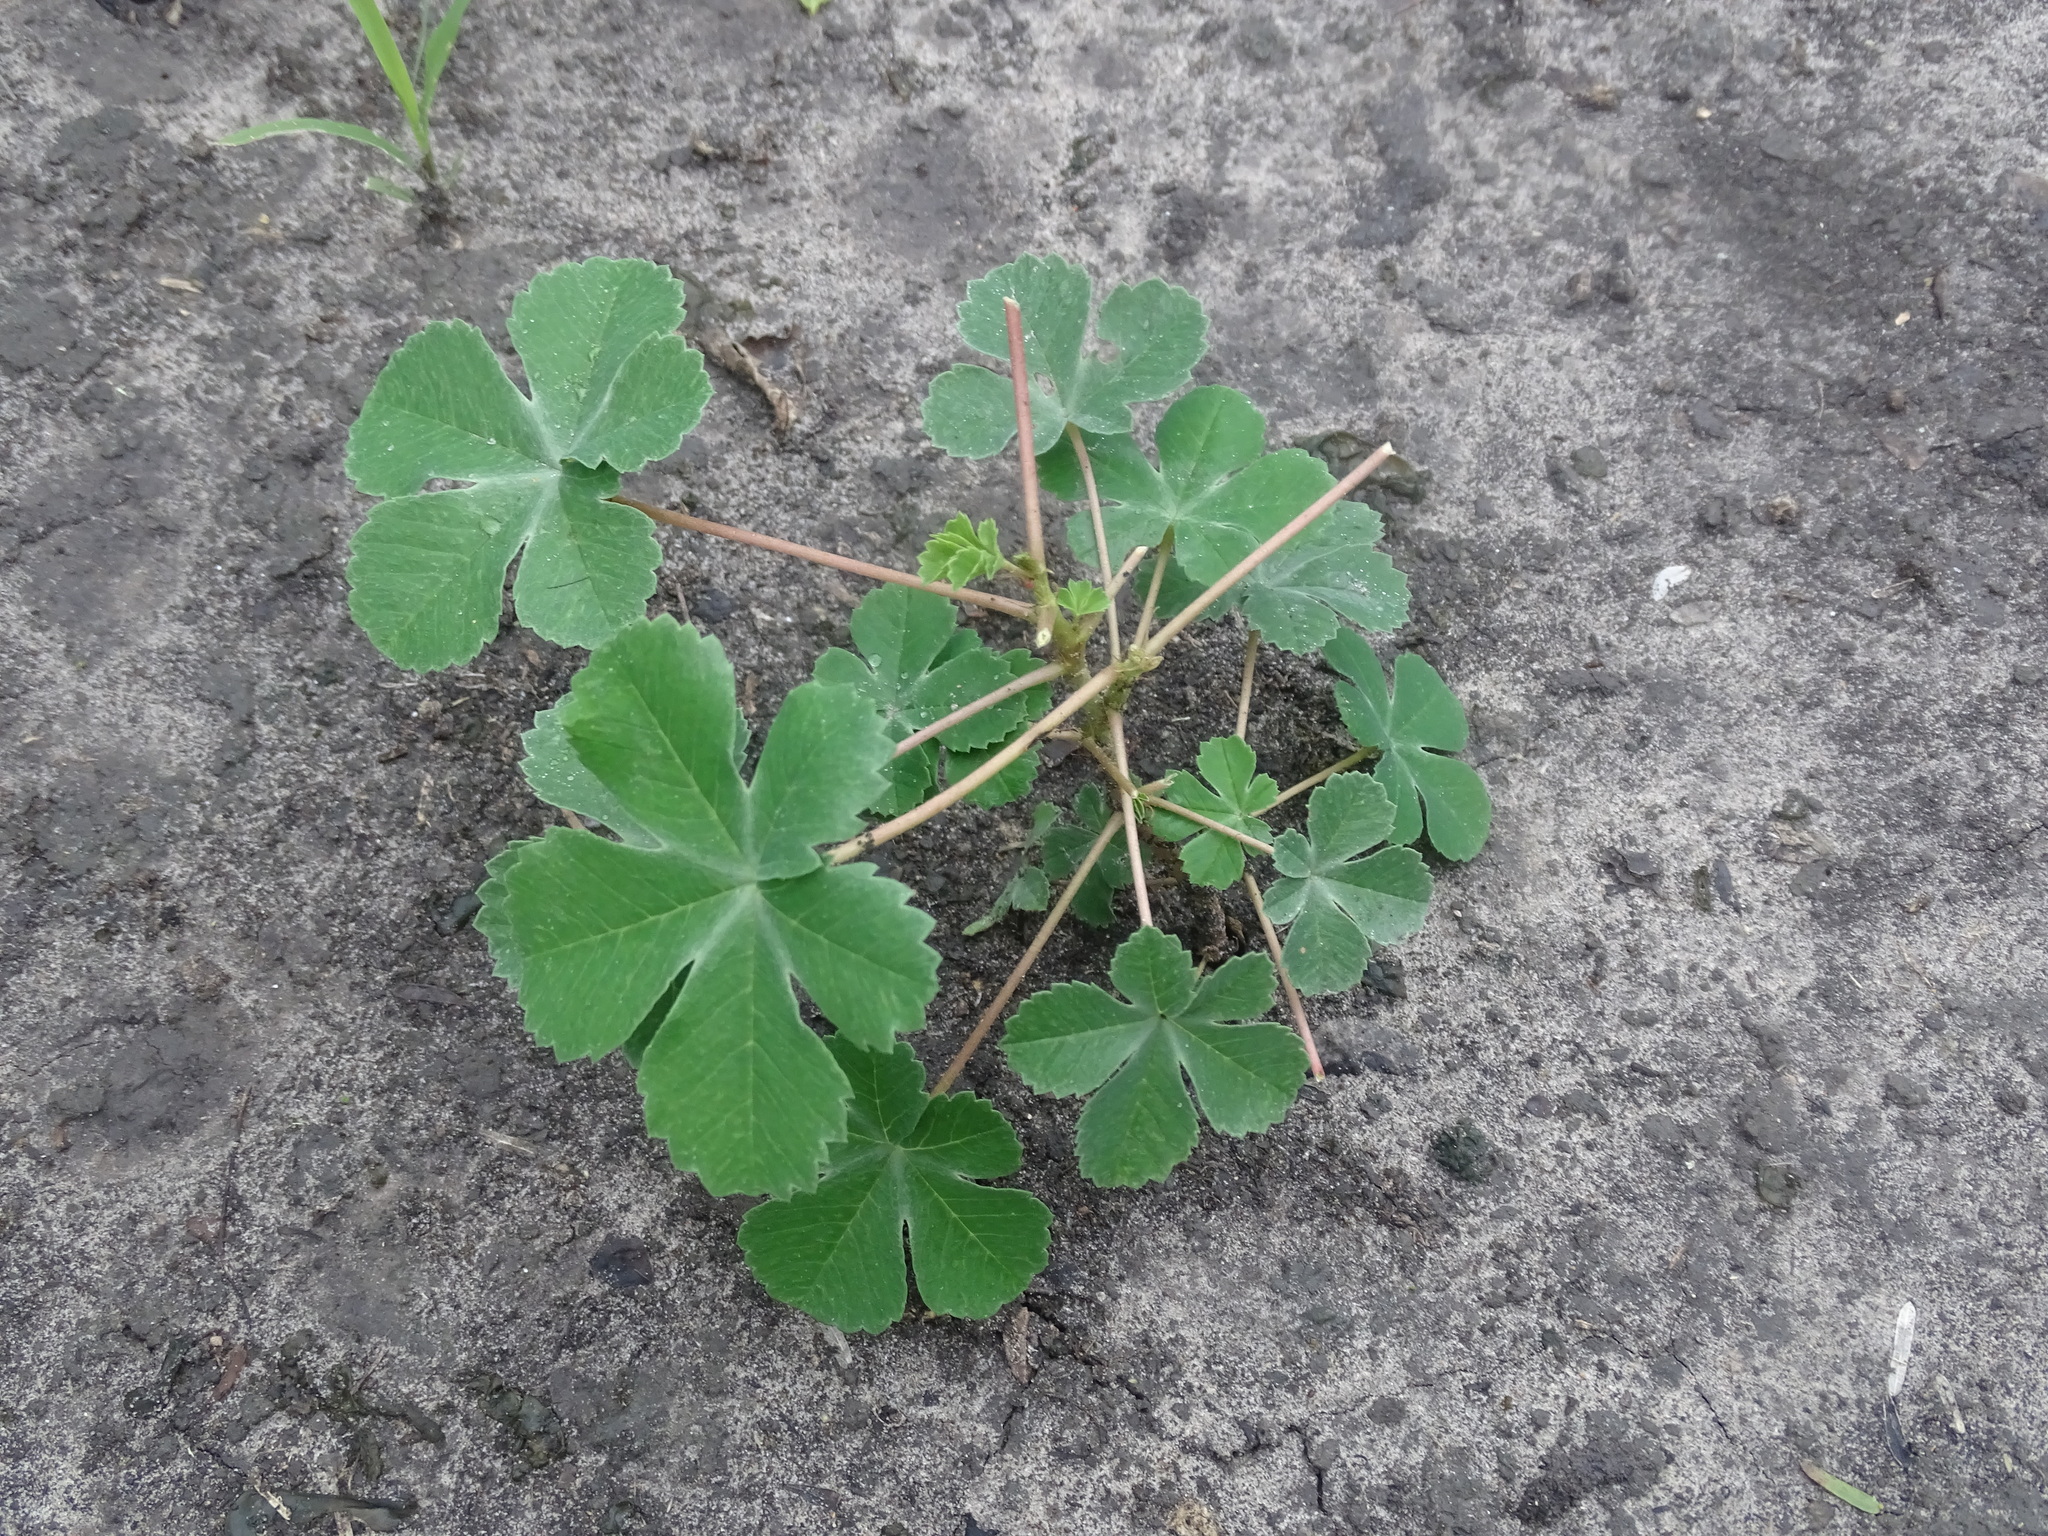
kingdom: Plantae
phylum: Tracheophyta
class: Magnoliopsida
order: Malvales
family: Cochlospermaceae
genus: Cochlospermum
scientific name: Cochlospermum wrightii
